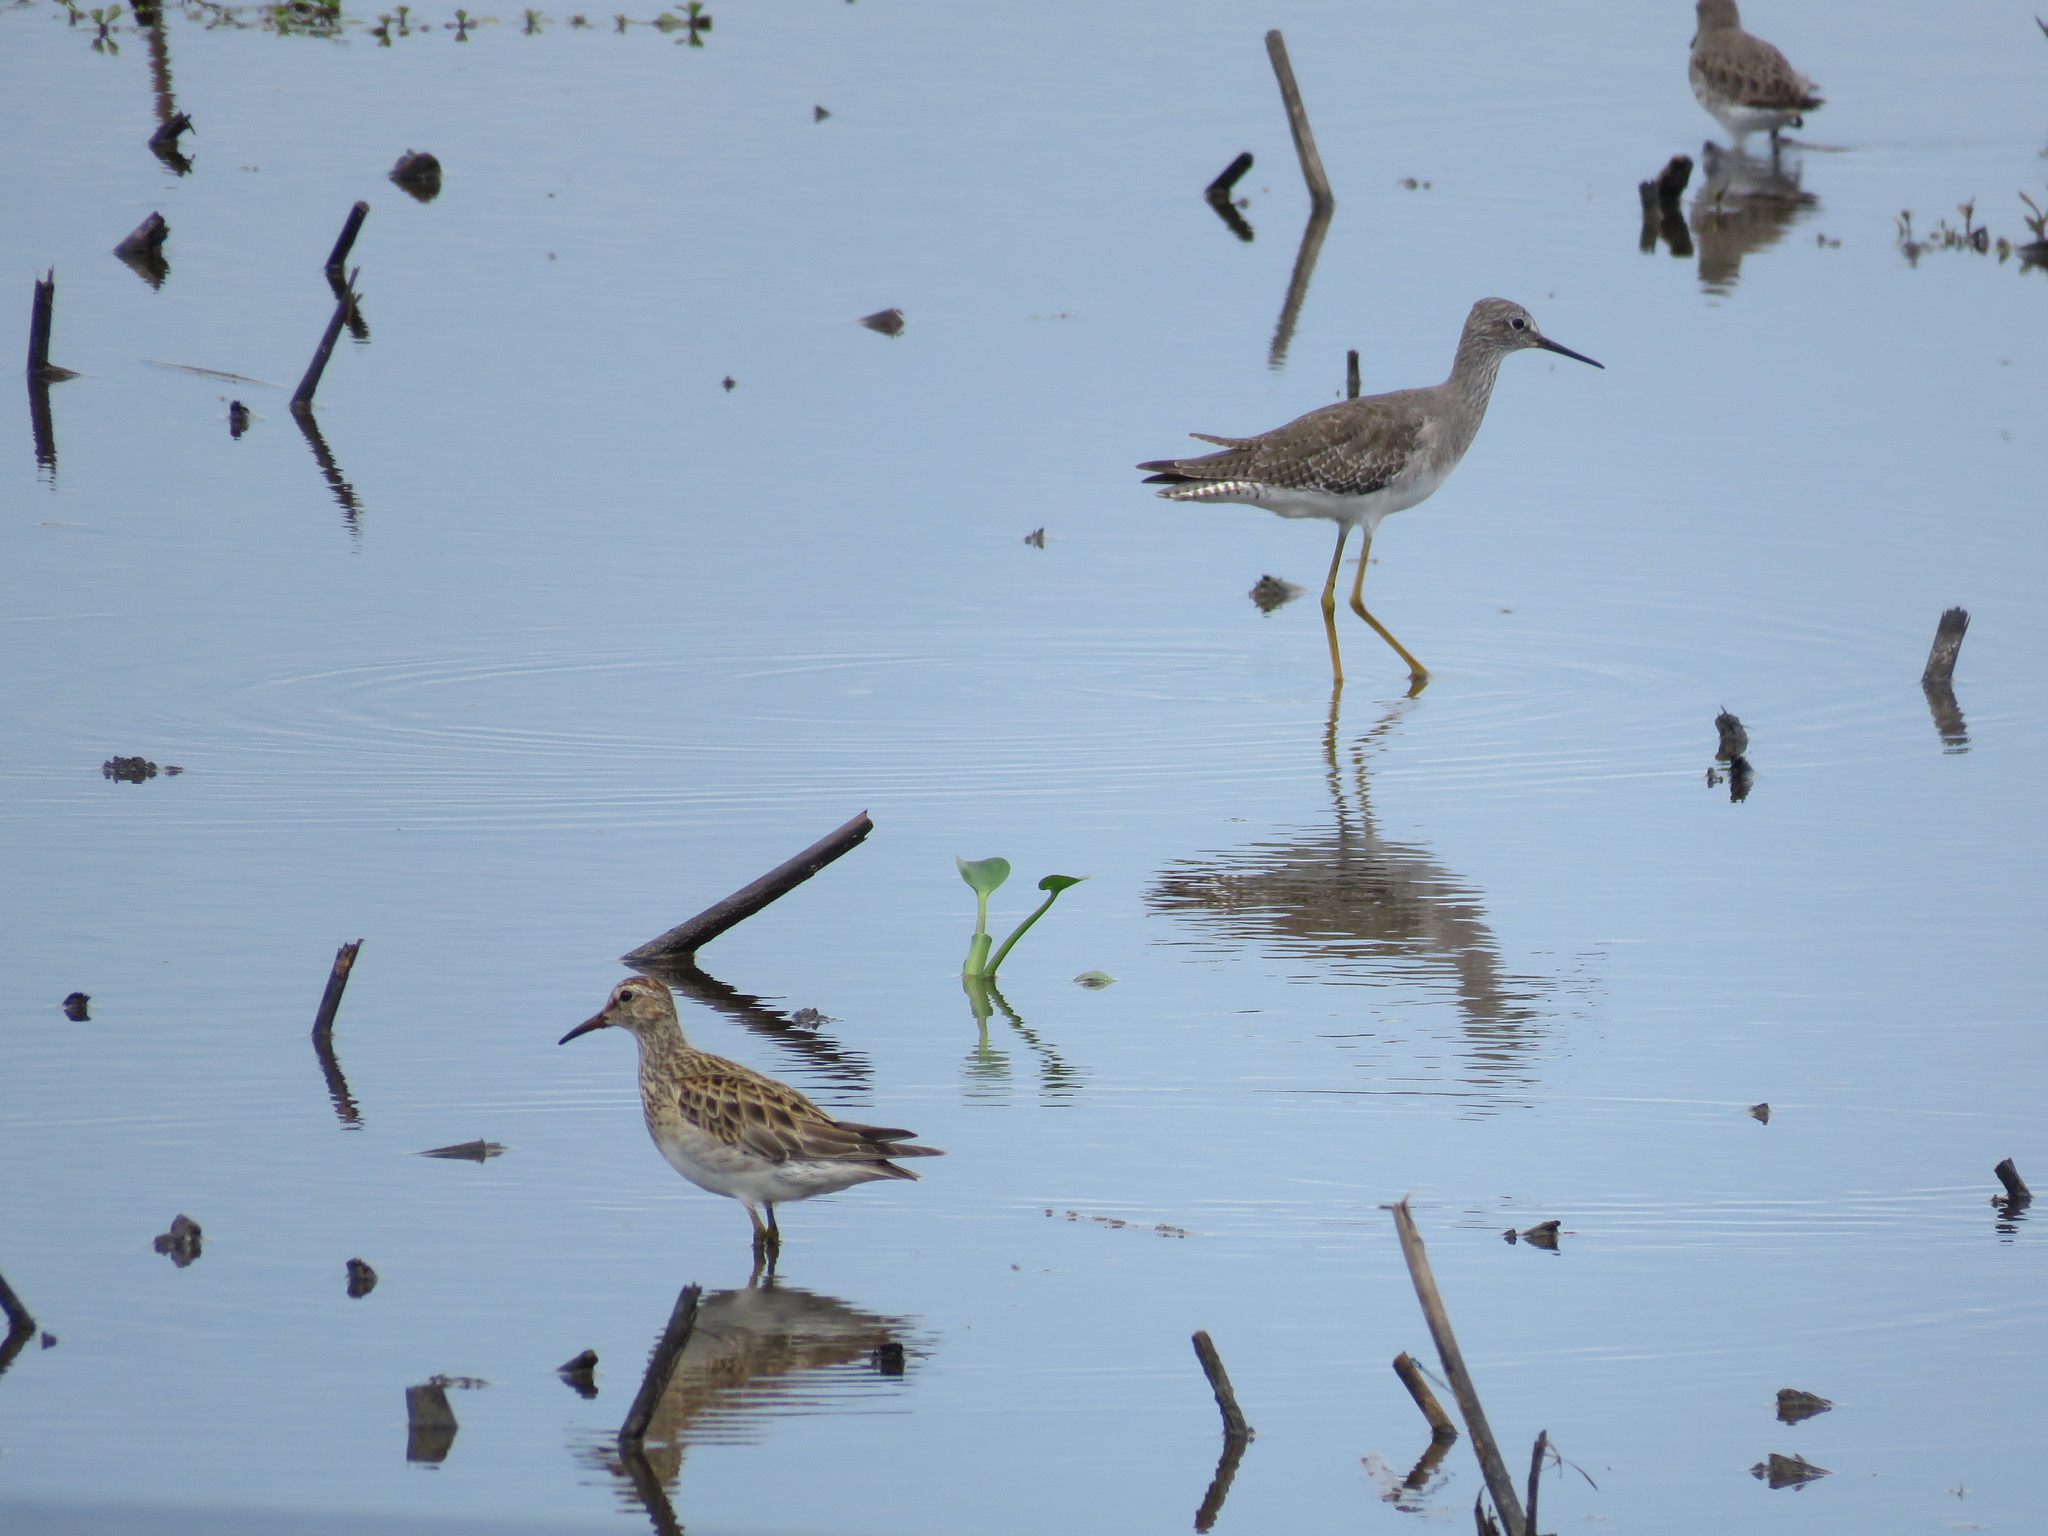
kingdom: Animalia
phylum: Chordata
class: Aves
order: Charadriiformes
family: Scolopacidae
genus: Calidris
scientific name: Calidris melanotos
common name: Pectoral sandpiper
